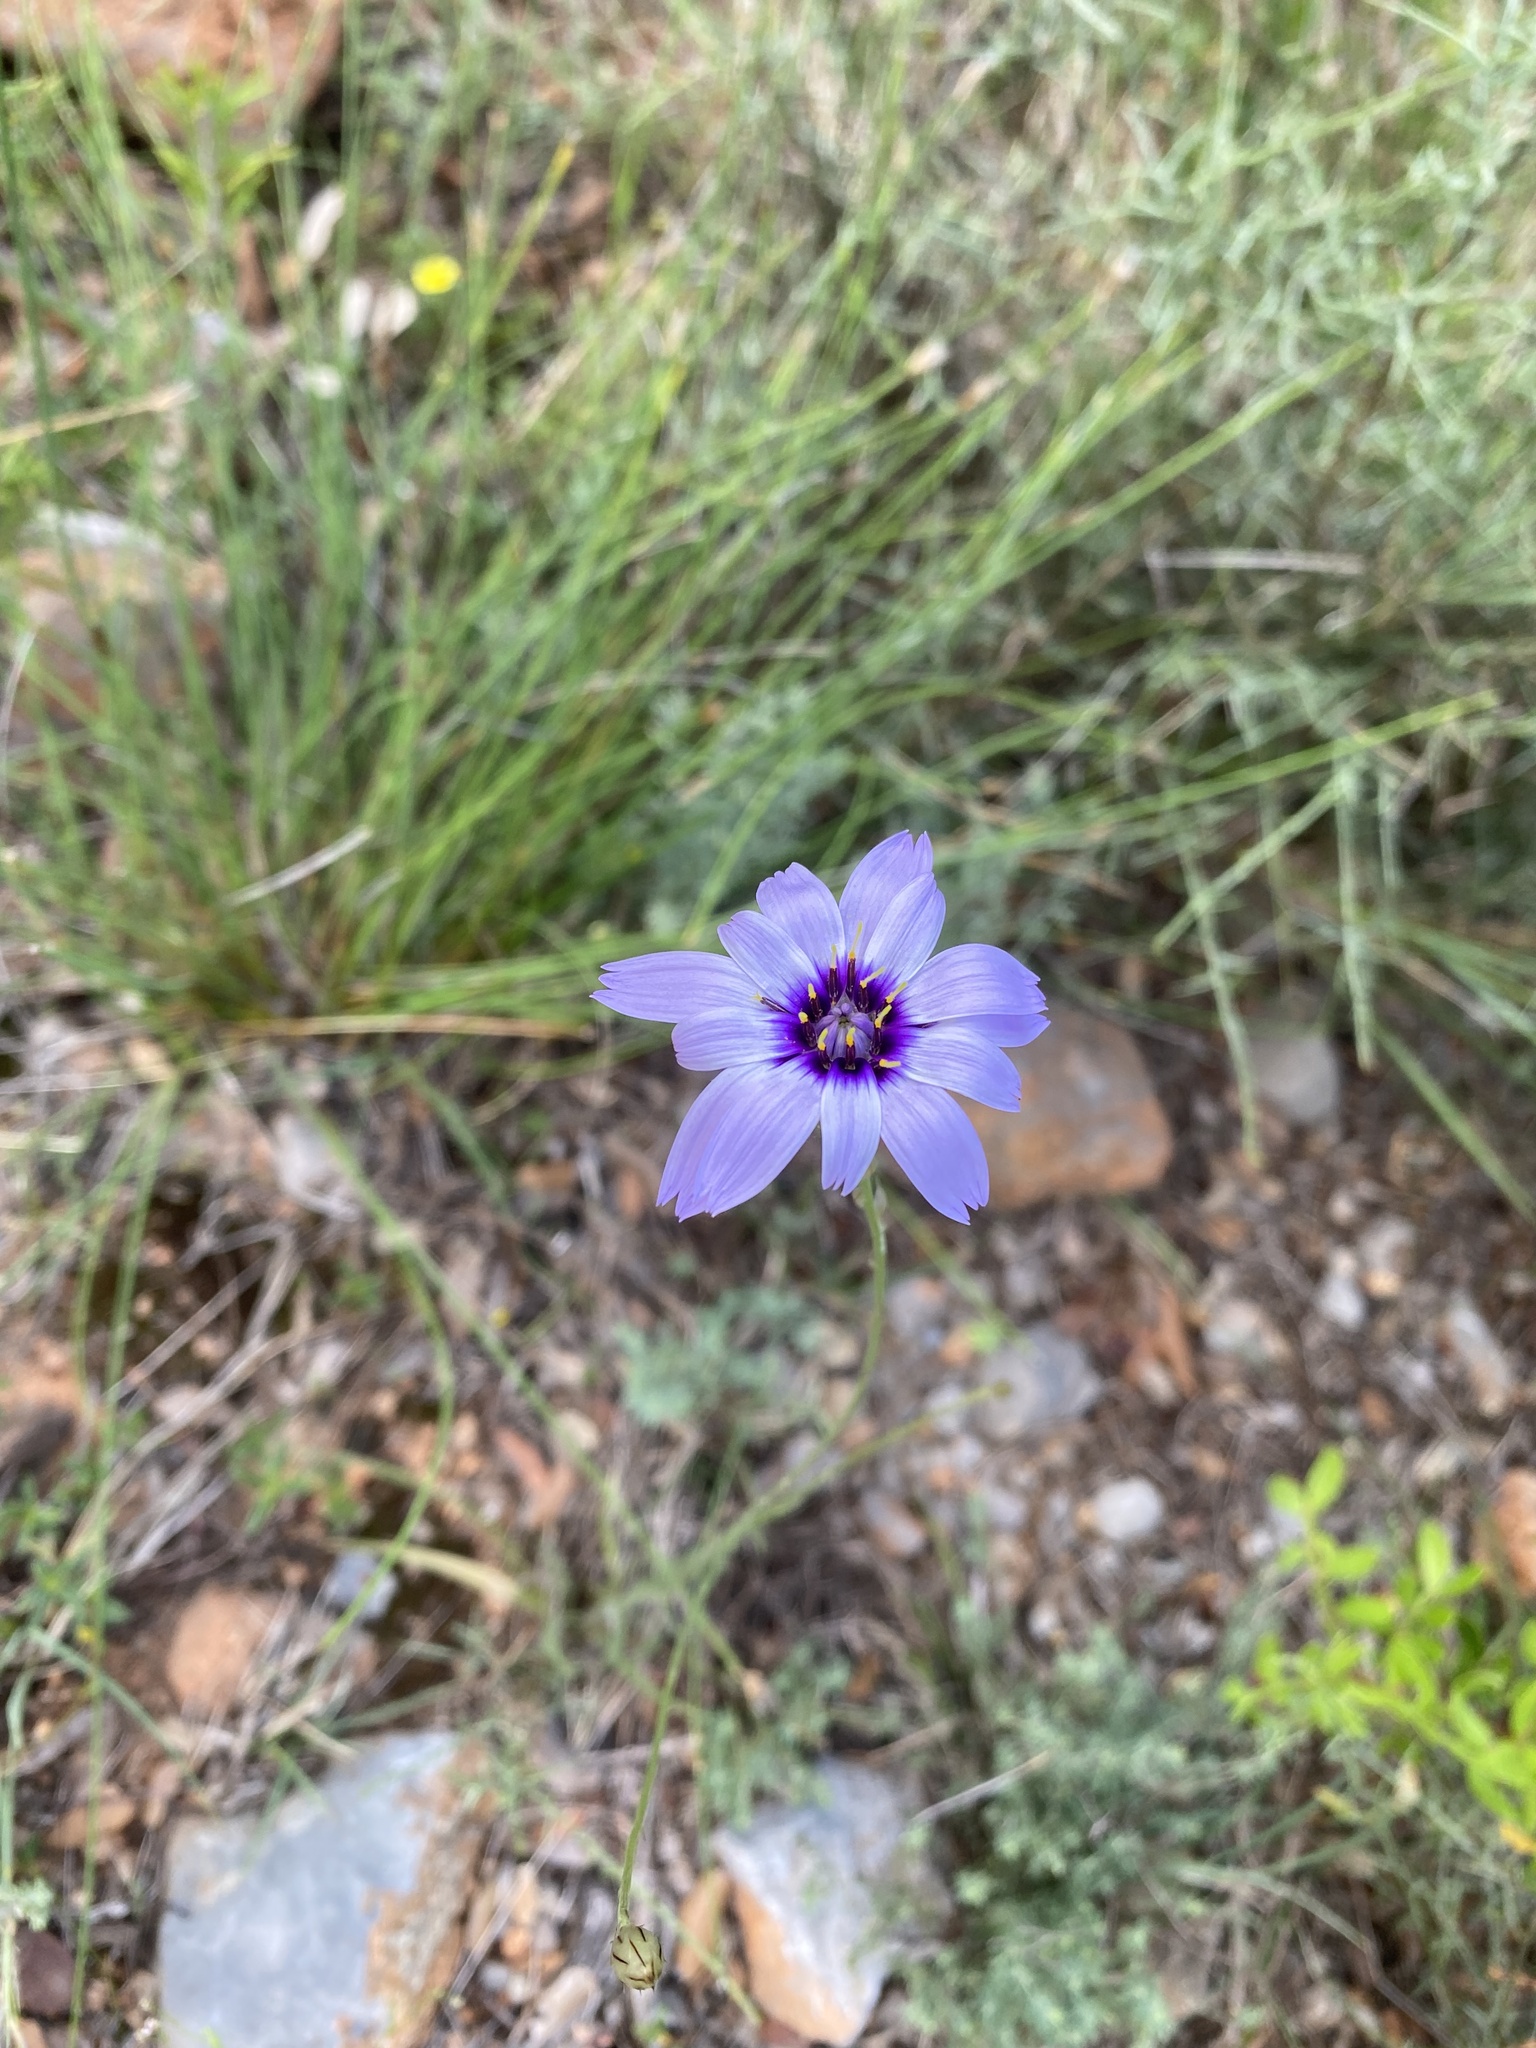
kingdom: Plantae
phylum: Tracheophyta
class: Magnoliopsida
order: Asterales
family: Asteraceae
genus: Catananche
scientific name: Catananche caerulea
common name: Blue cupidone
